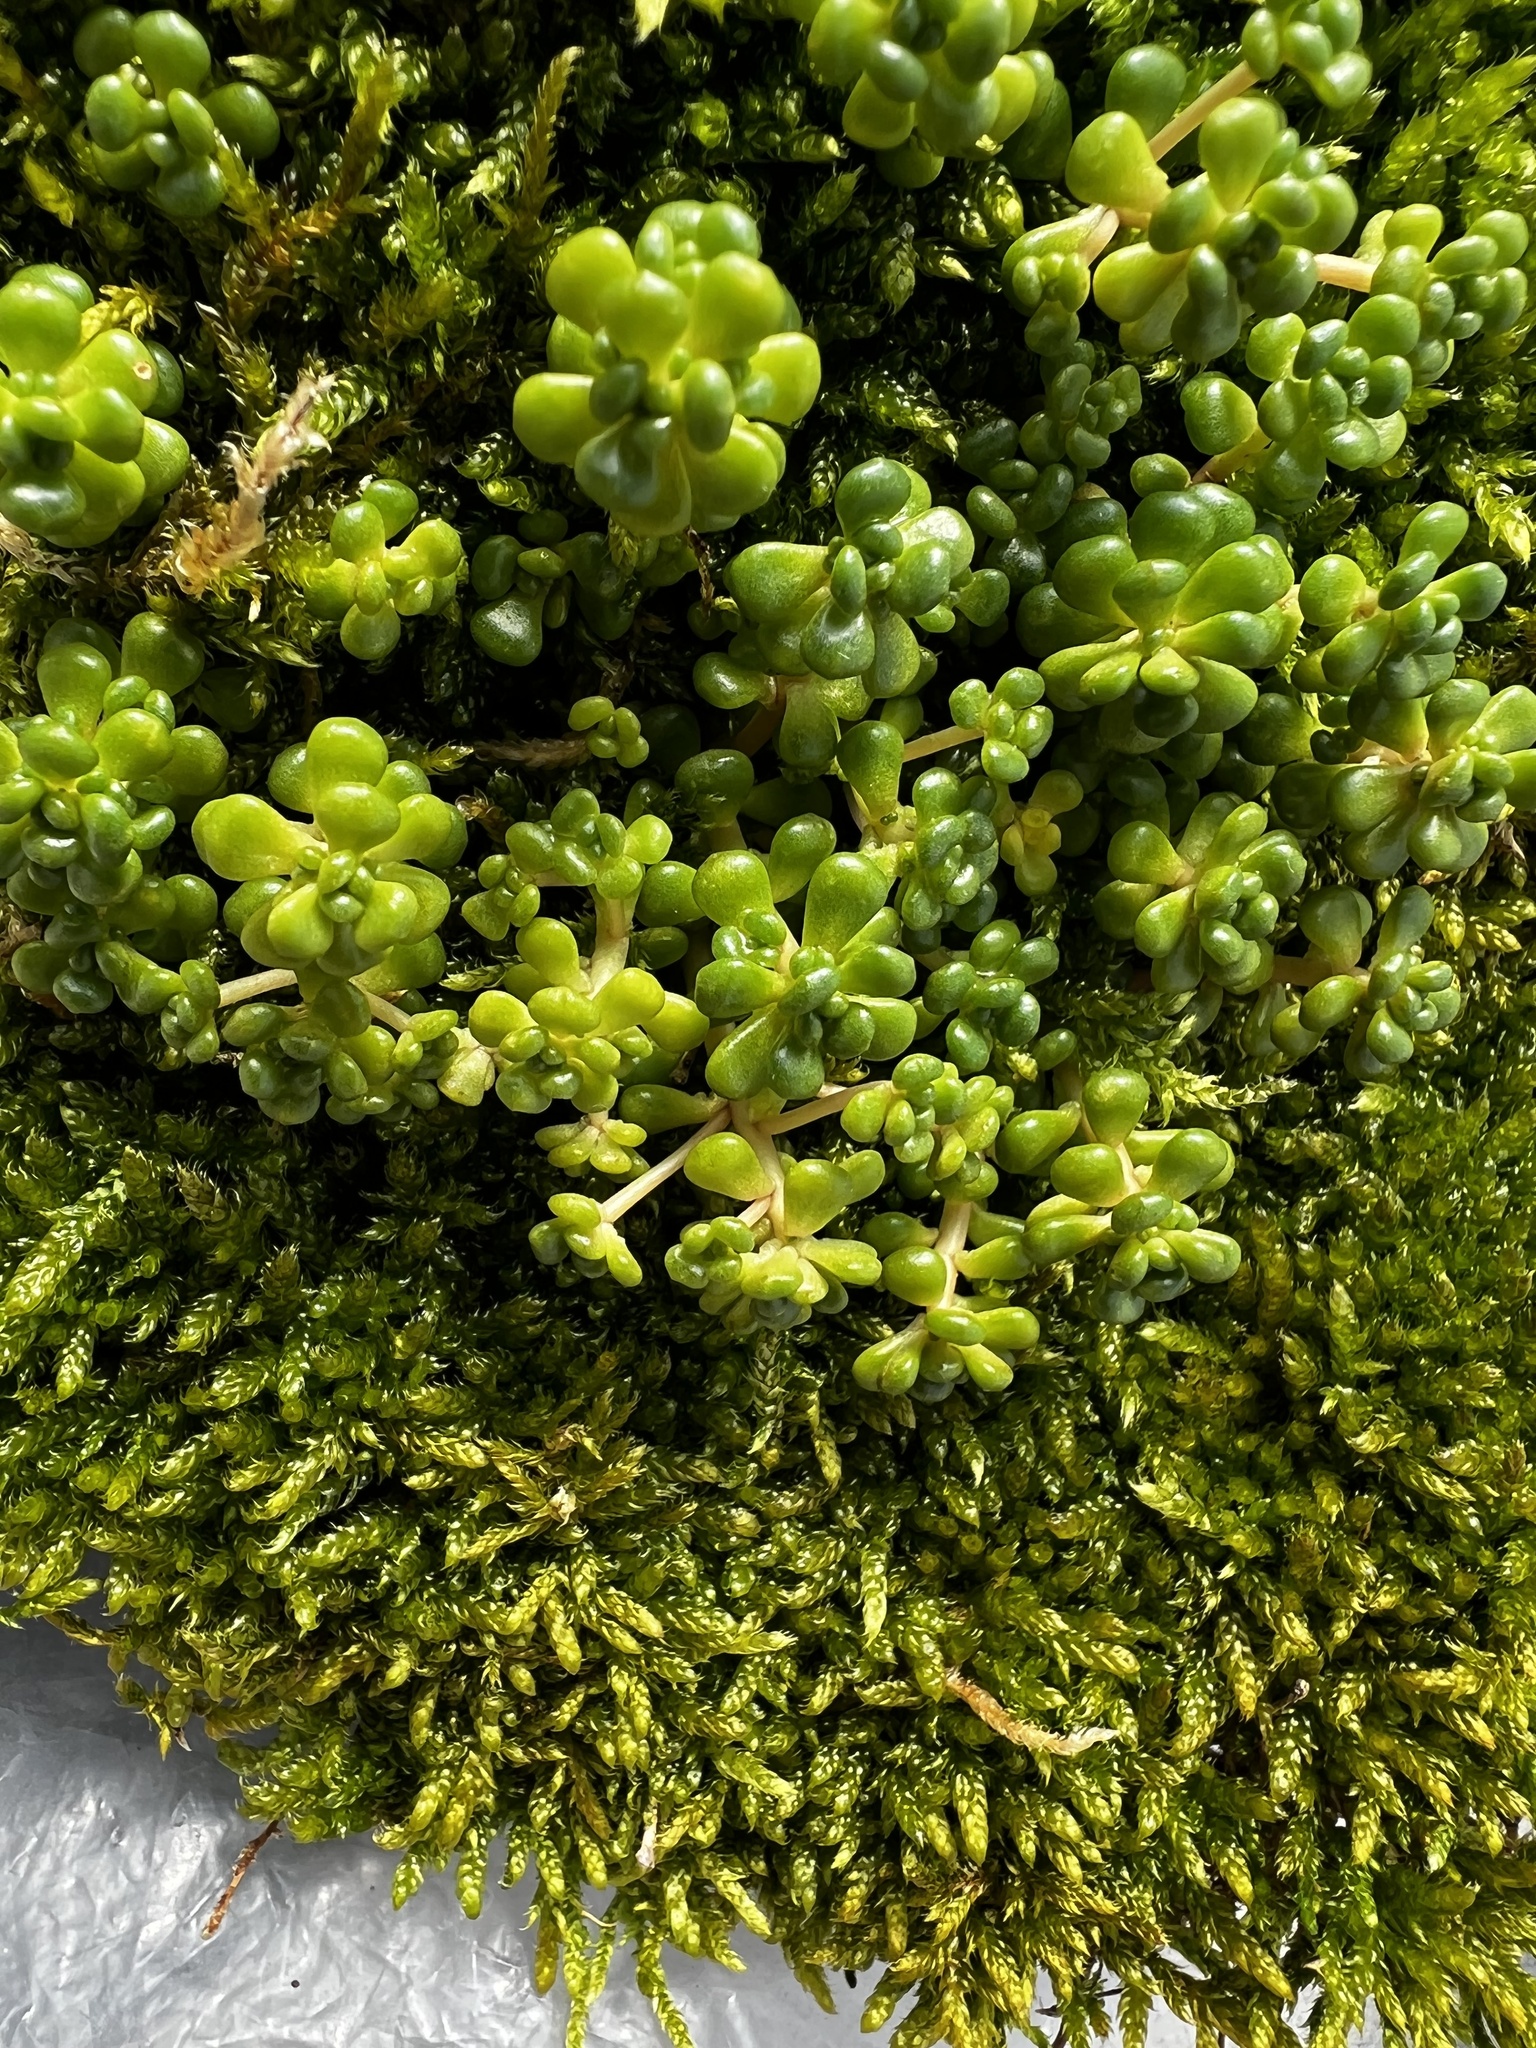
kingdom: Plantae
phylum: Tracheophyta
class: Magnoliopsida
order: Saxifragales
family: Crassulaceae
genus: Sedum
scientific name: Sedum oreganum
